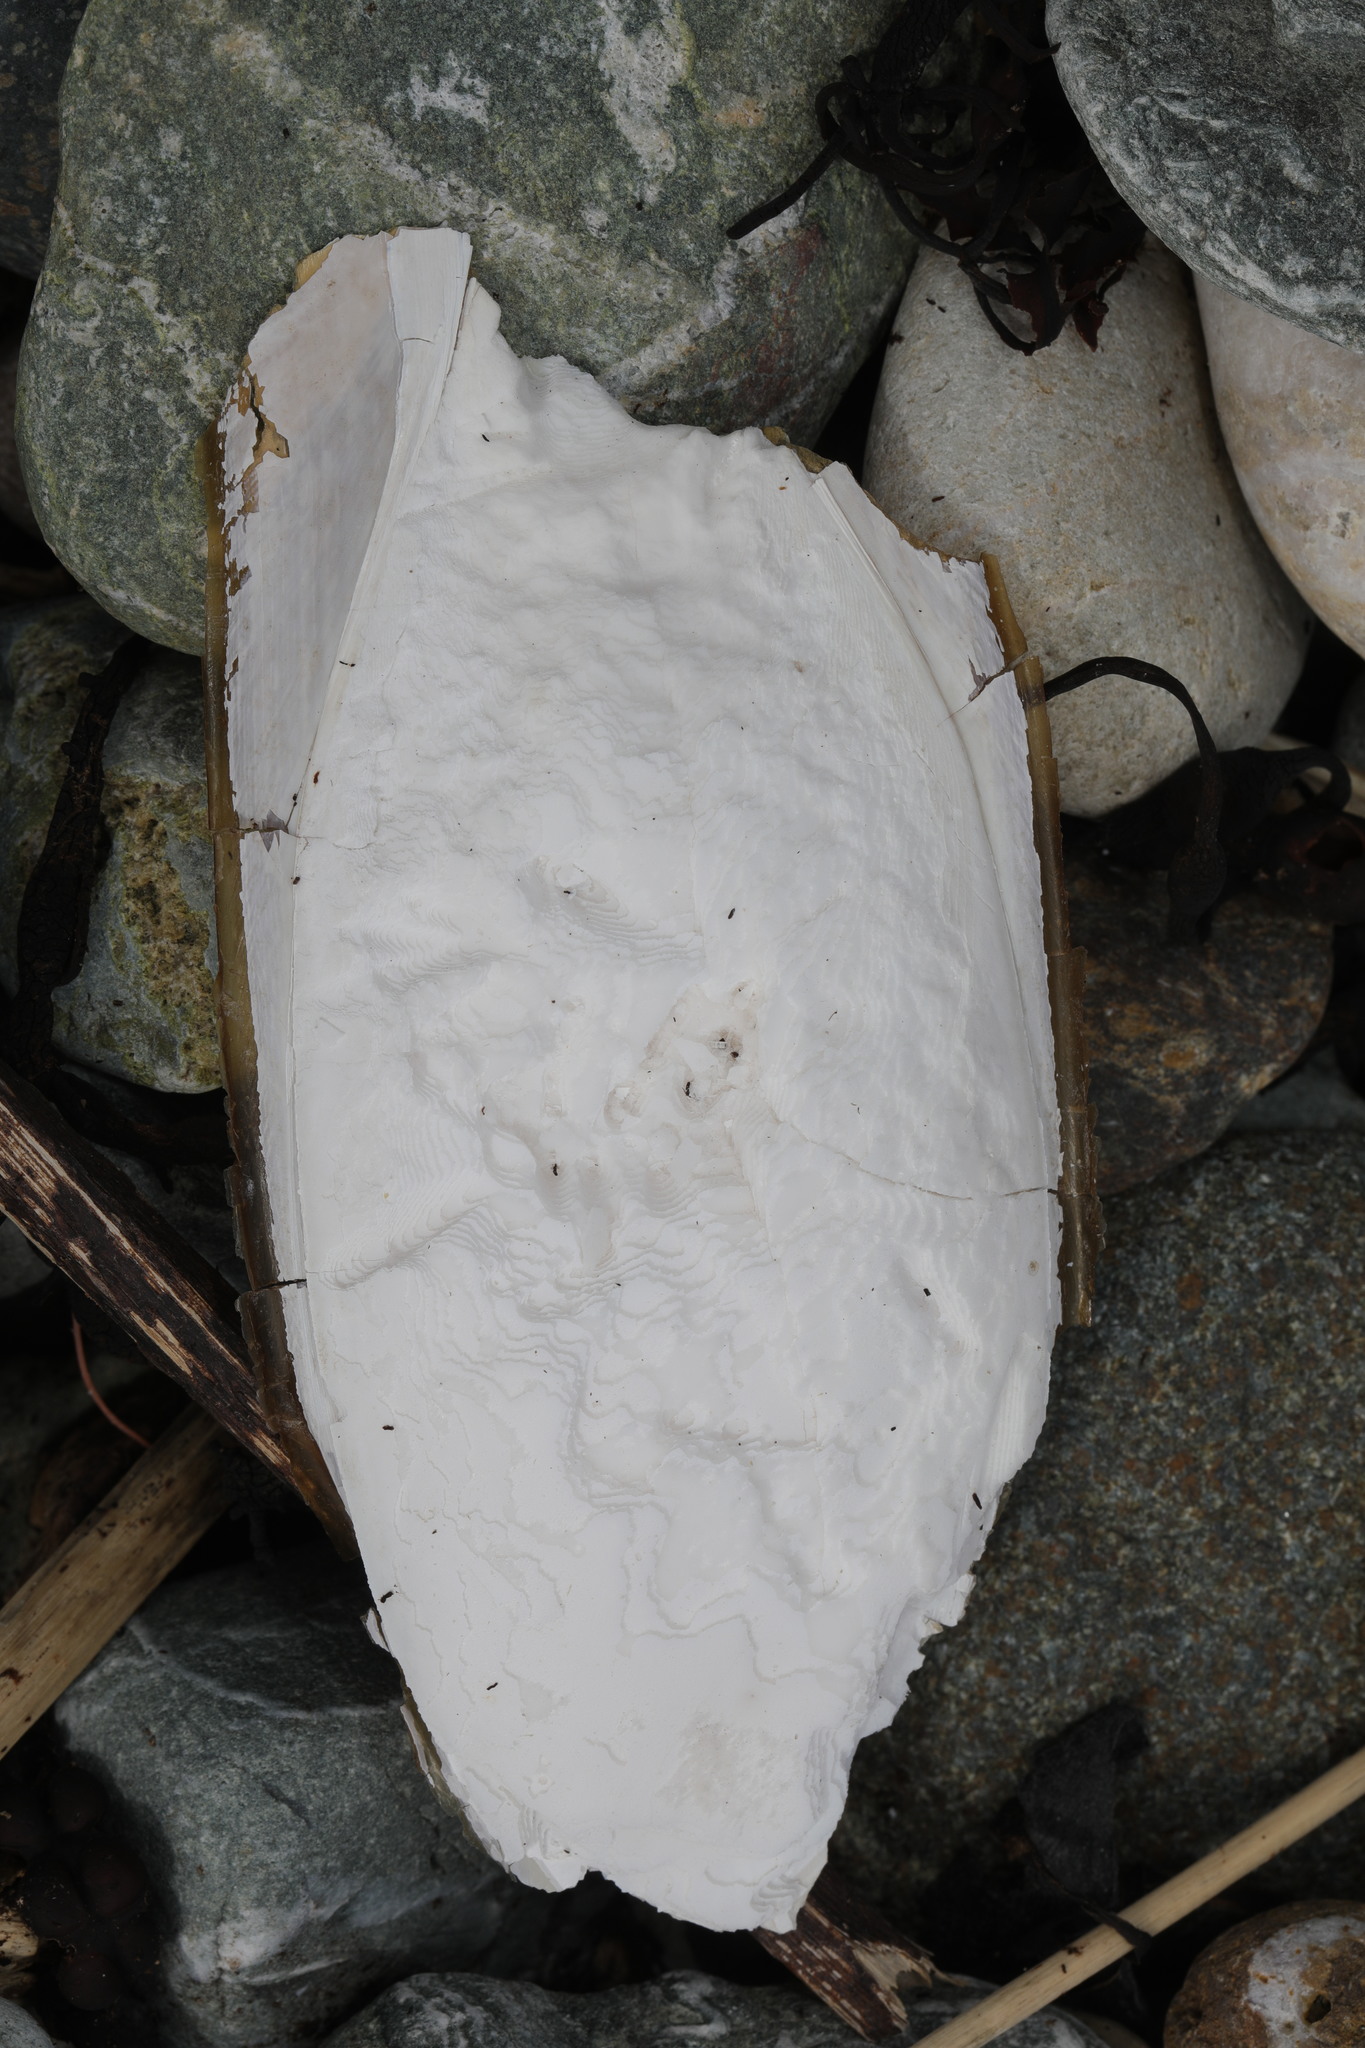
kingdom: Animalia
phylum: Mollusca
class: Cephalopoda
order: Sepiida
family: Sepiidae
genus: Sepia
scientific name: Sepia officinalis
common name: Common cuttlefish
